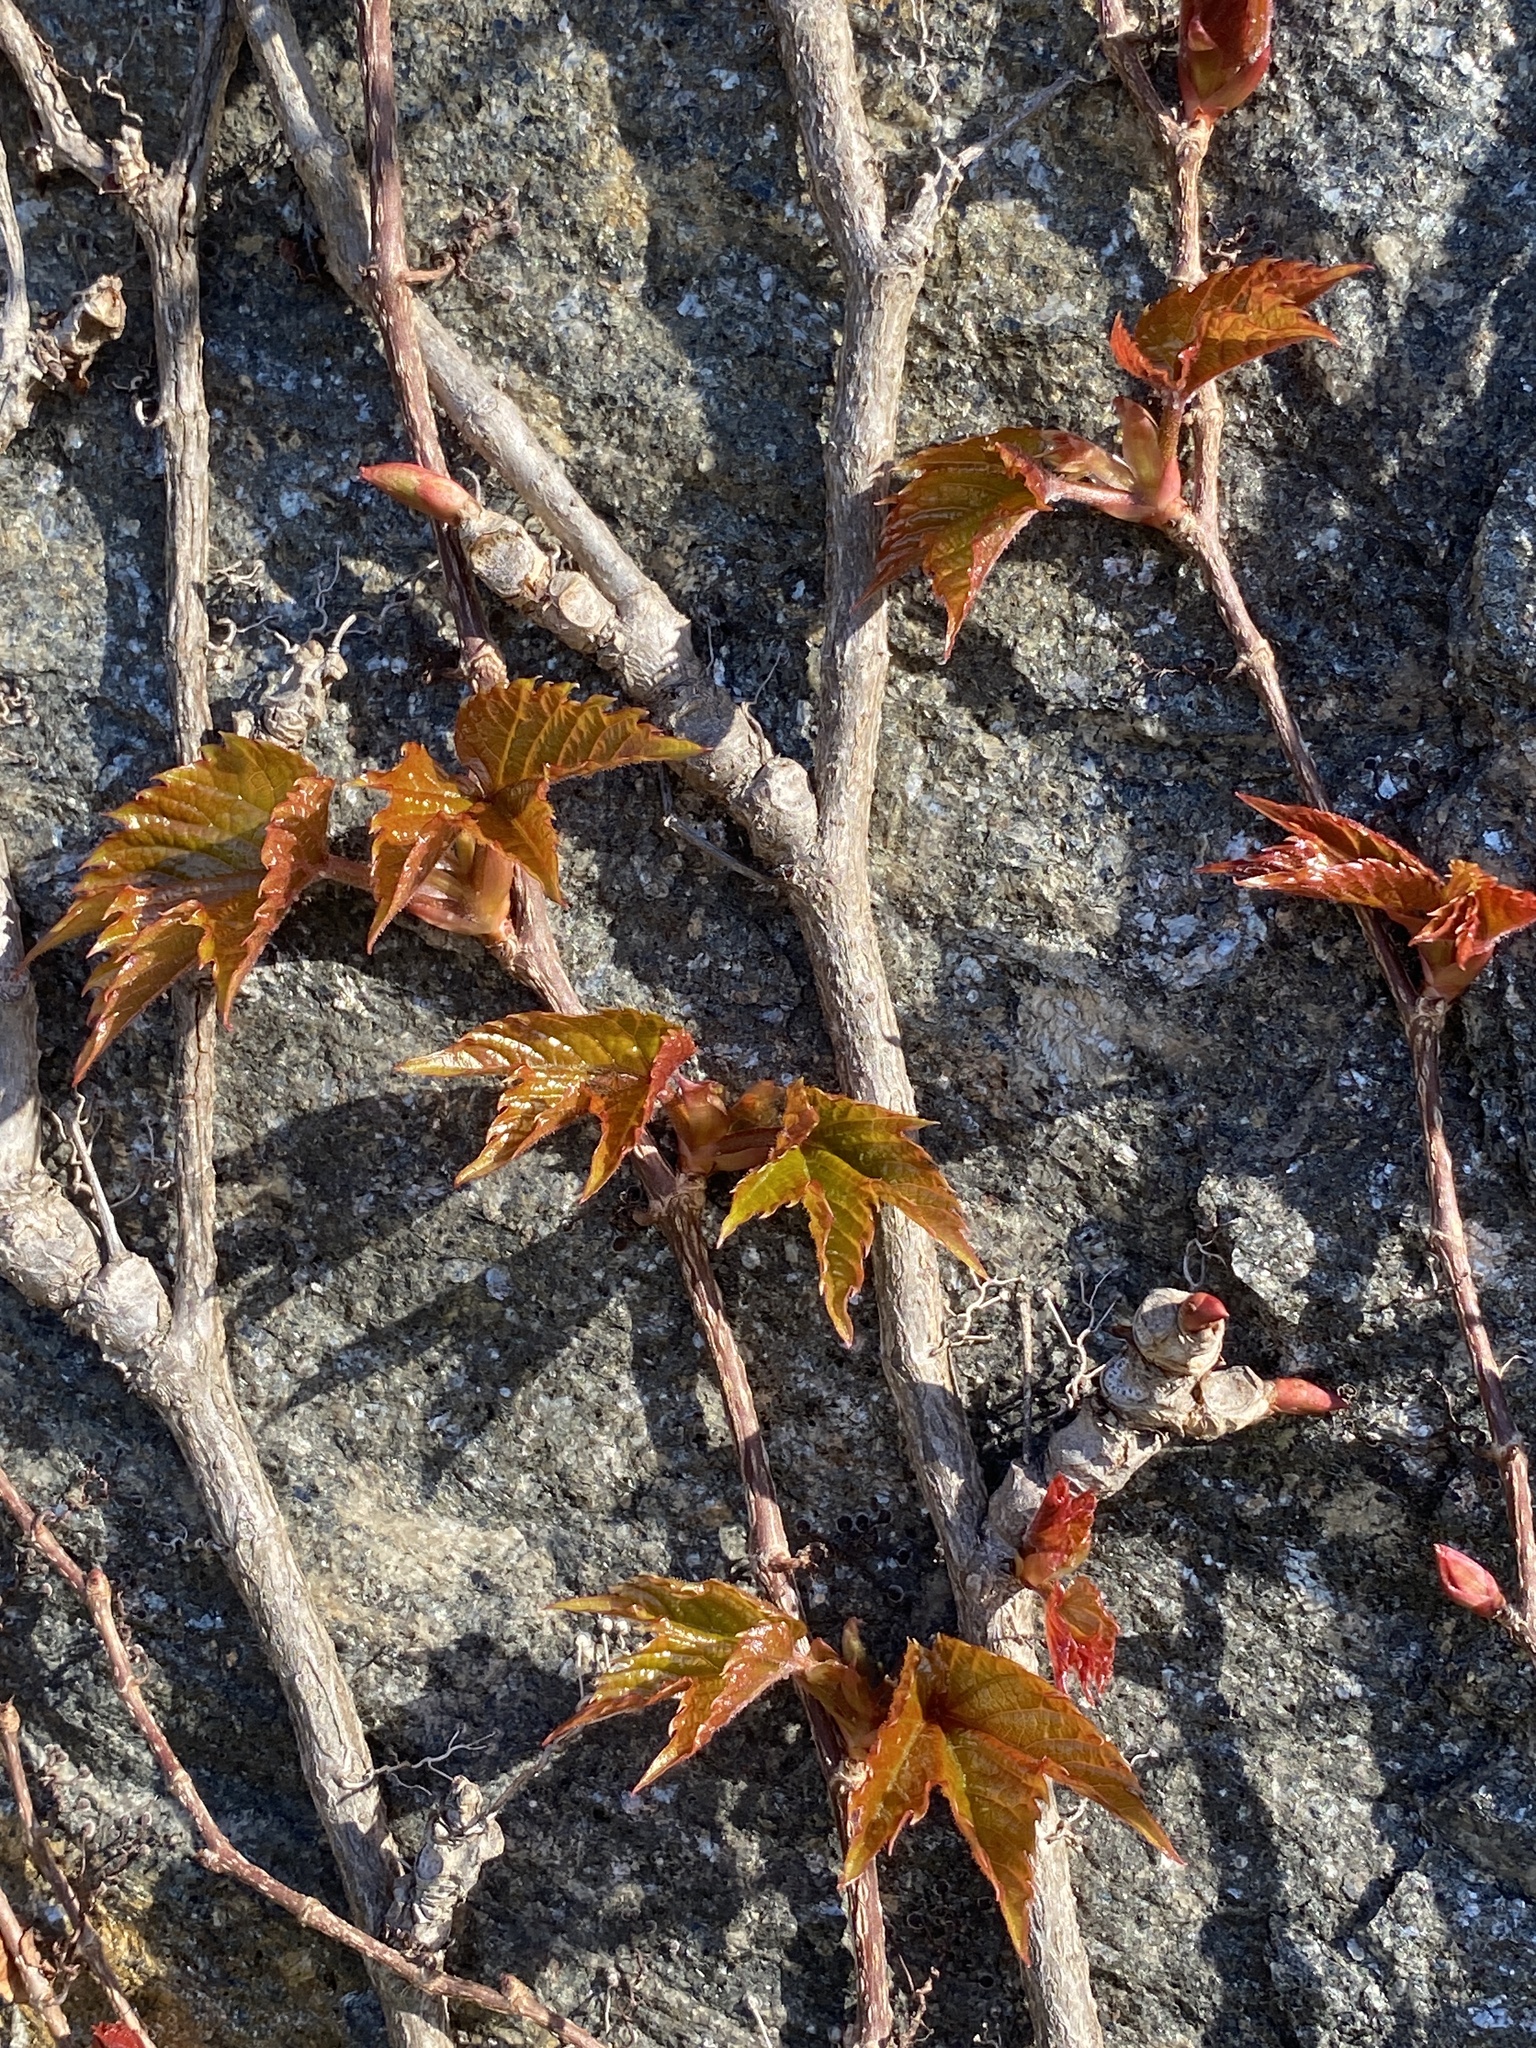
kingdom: Plantae
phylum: Tracheophyta
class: Magnoliopsida
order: Vitales
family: Vitaceae
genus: Parthenocissus
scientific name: Parthenocissus tricuspidata
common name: Boston ivy
